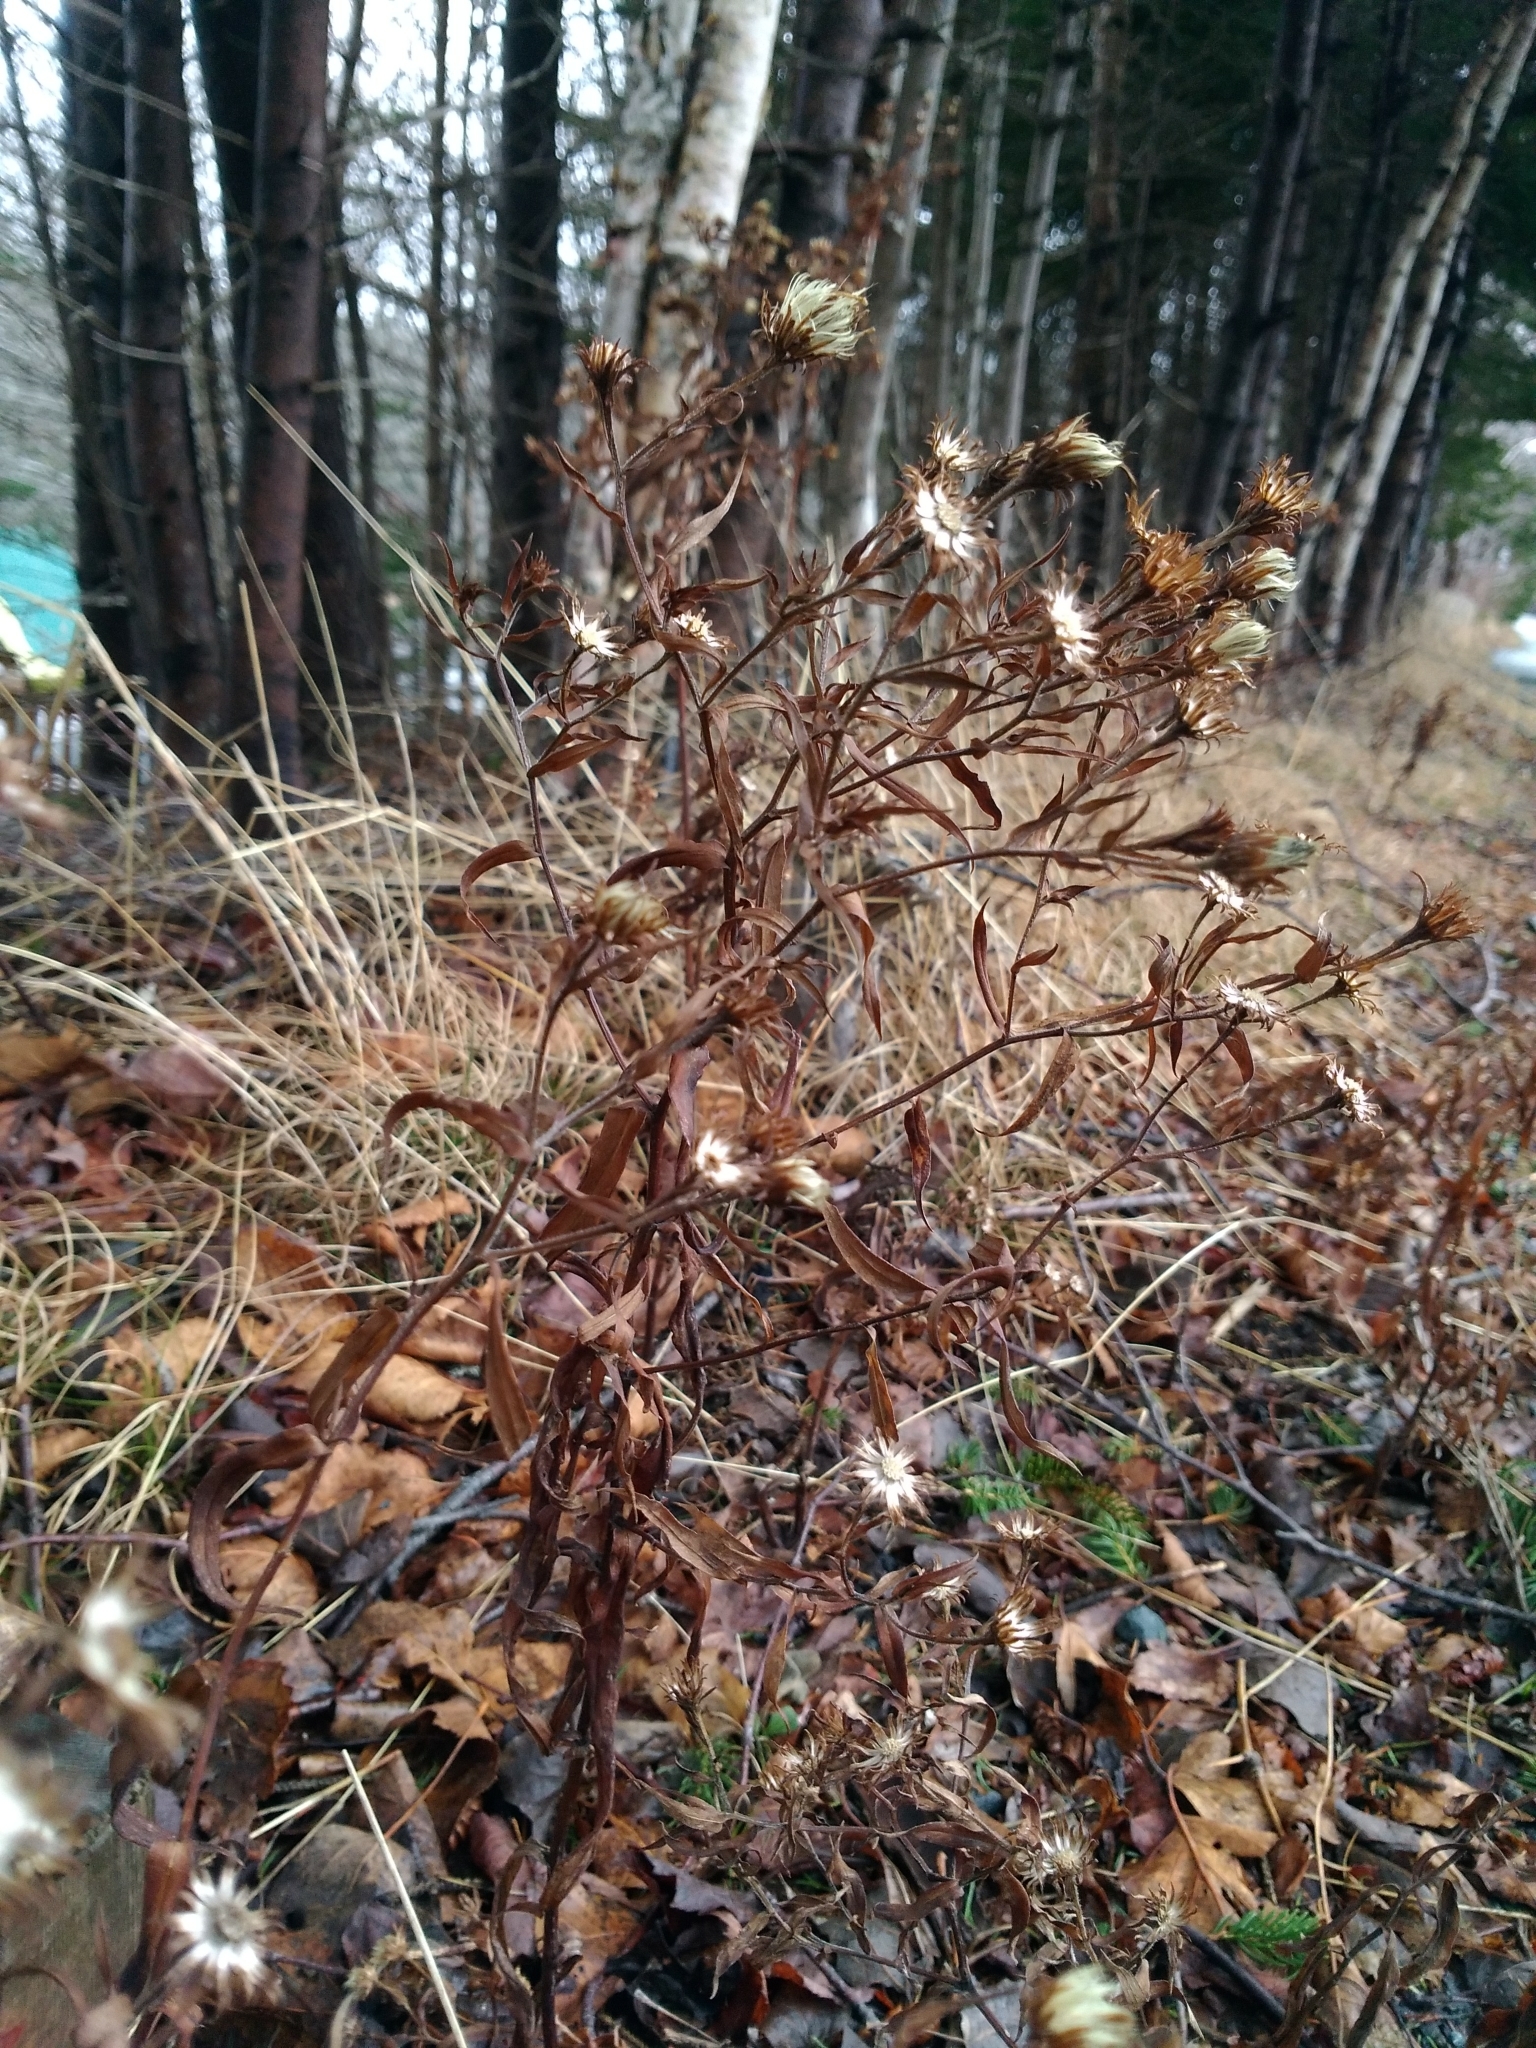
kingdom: Plantae
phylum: Tracheophyta
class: Magnoliopsida
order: Asterales
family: Asteraceae
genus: Symphyotrichum
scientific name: Symphyotrichum novi-belgii
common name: Michaelmas daisy
